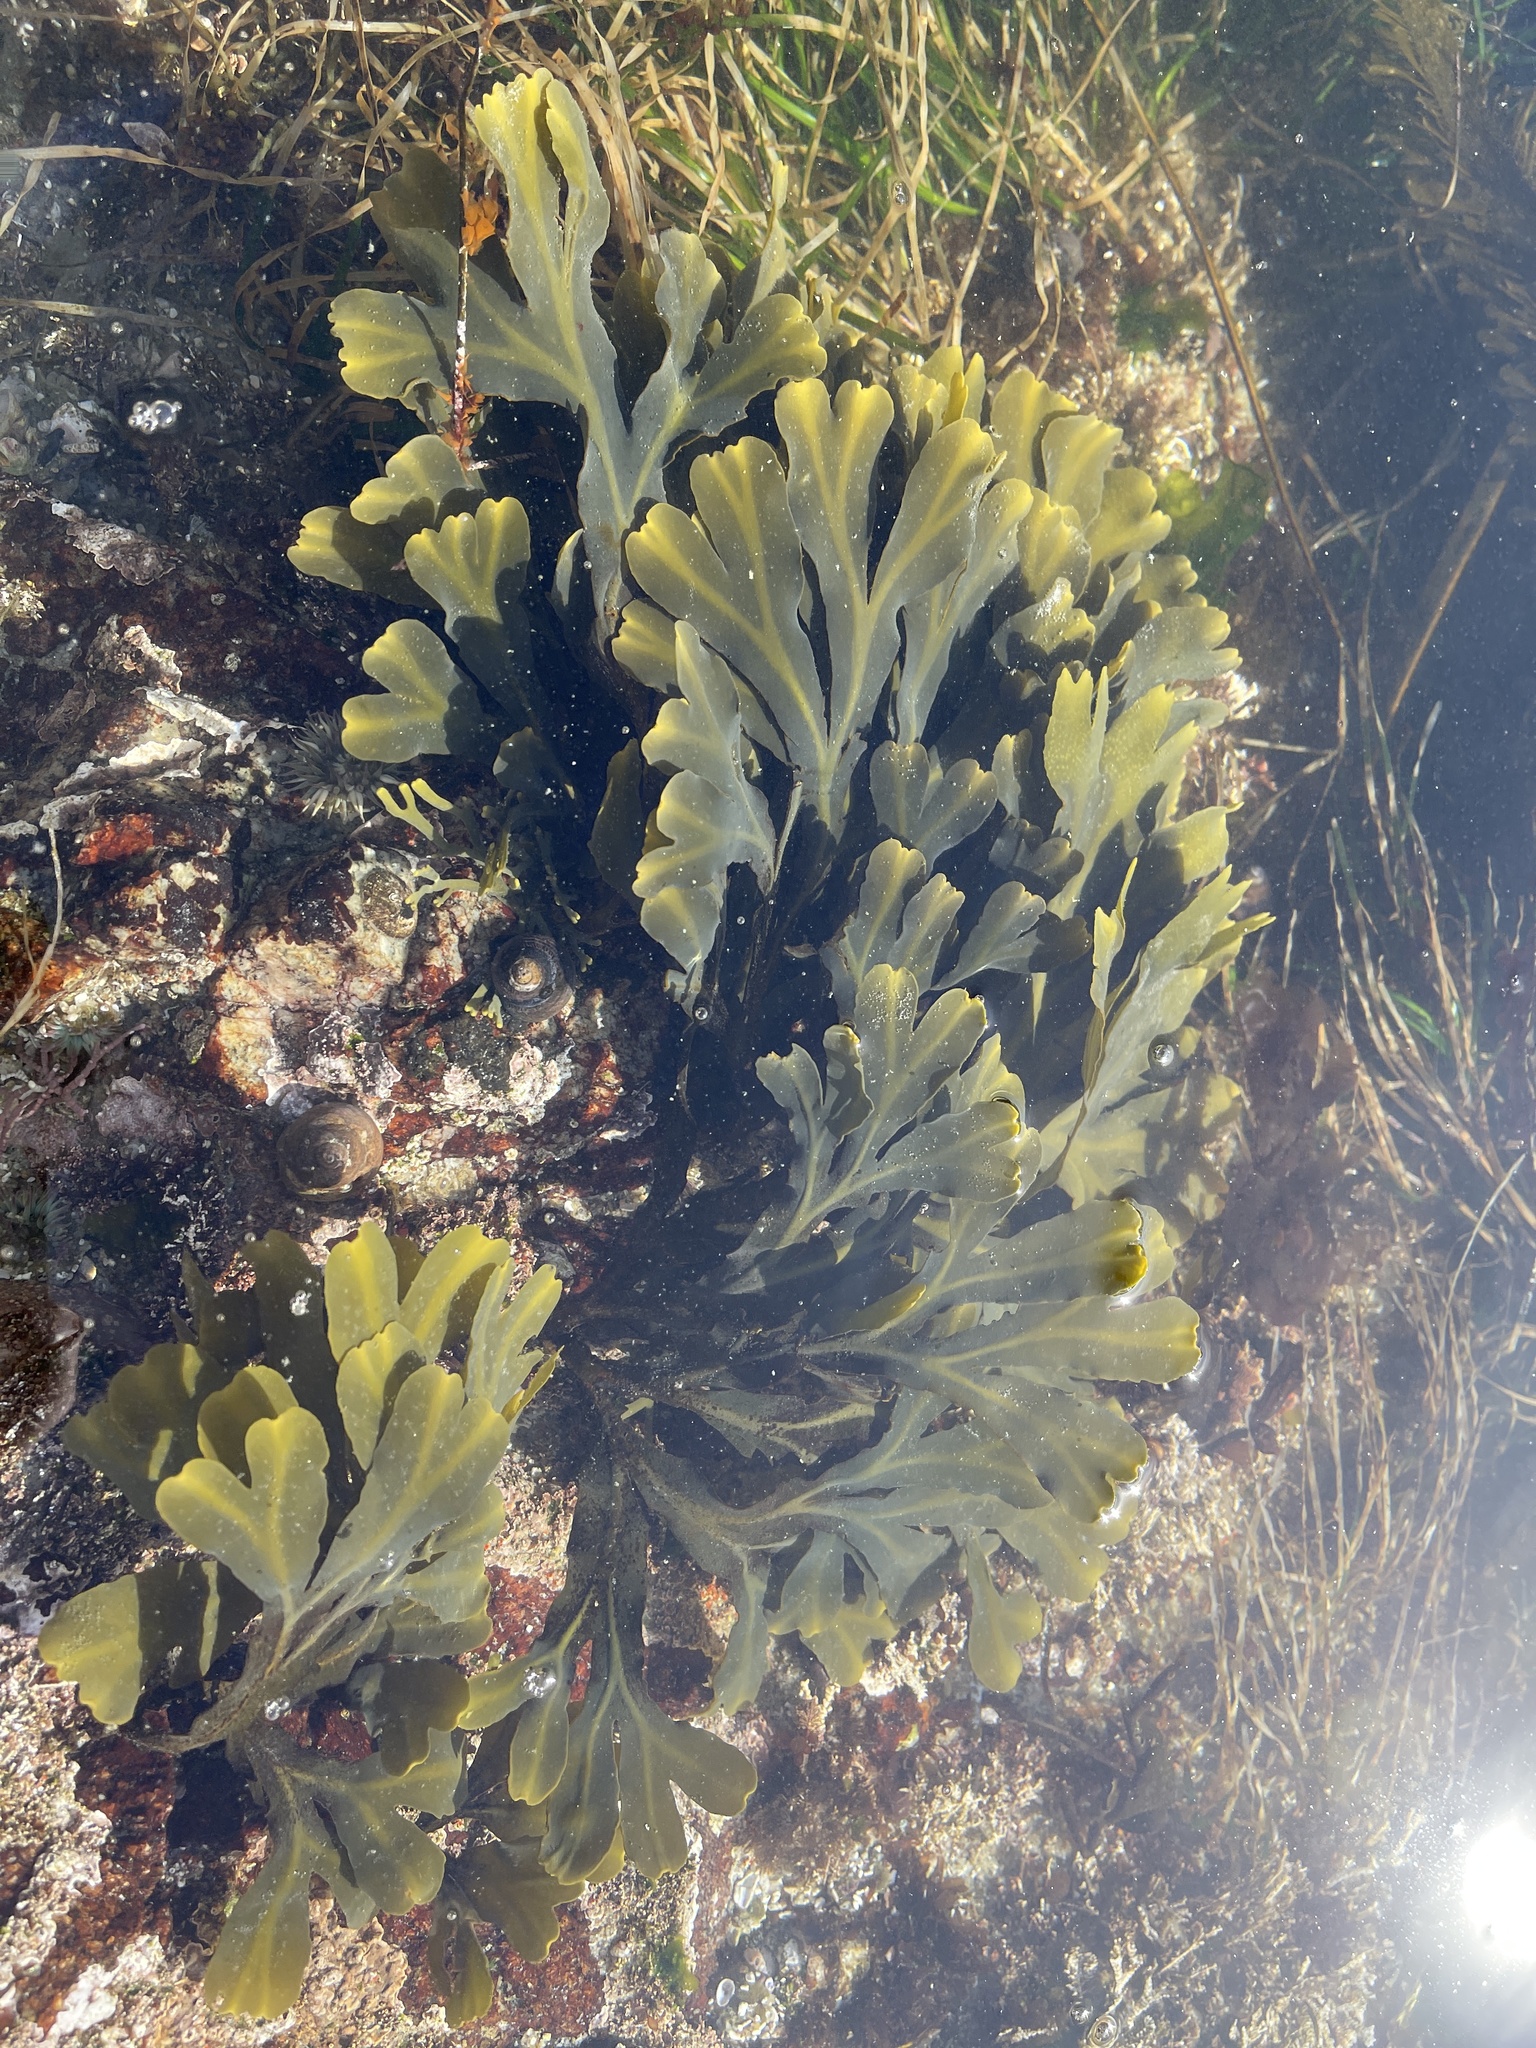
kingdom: Chromista
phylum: Ochrophyta
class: Phaeophyceae
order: Fucales
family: Fucaceae
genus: Fucus
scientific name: Fucus distichus
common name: Rockweed
